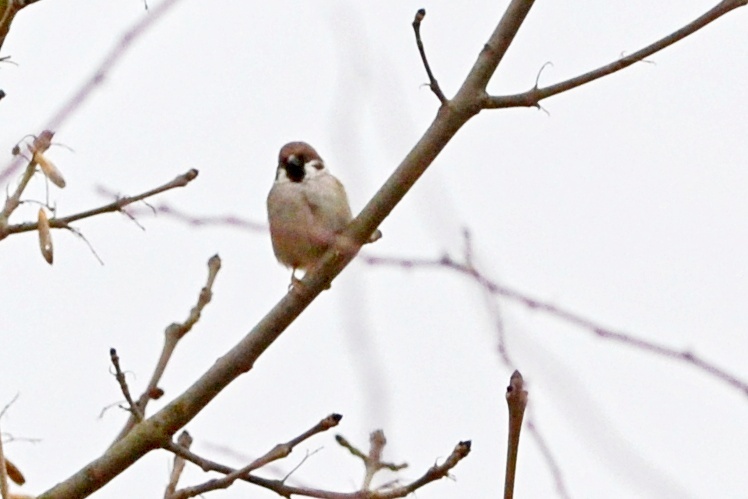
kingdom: Animalia
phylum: Chordata
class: Aves
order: Passeriformes
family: Passeridae
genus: Passer
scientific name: Passer montanus
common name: Eurasian tree sparrow
